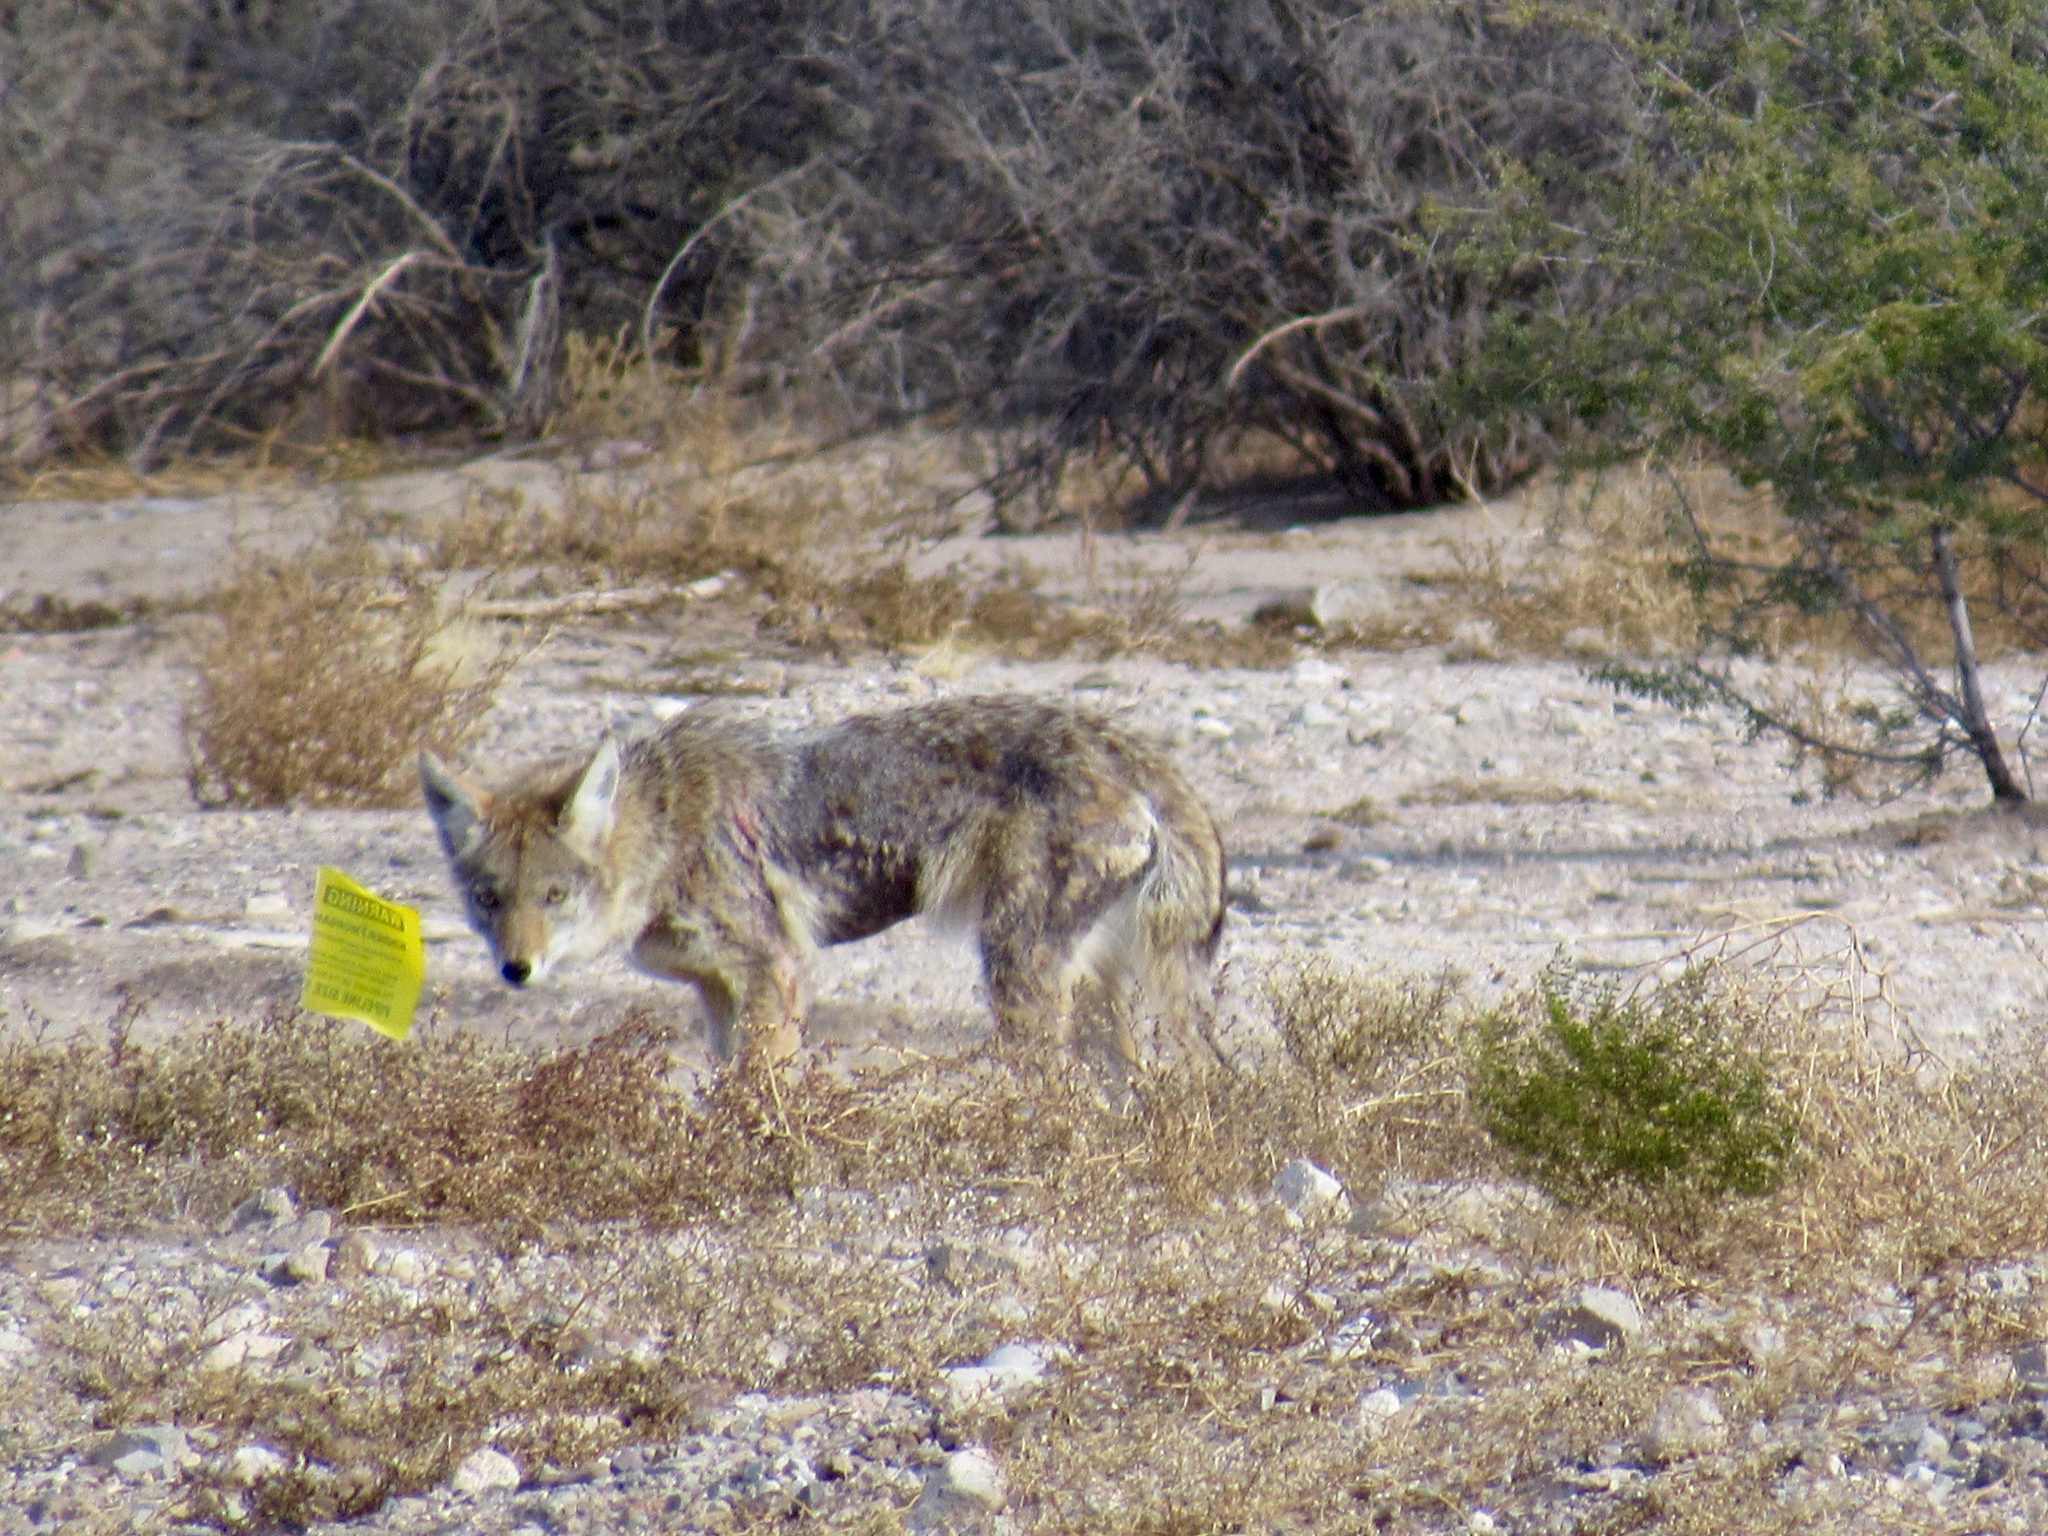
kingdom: Animalia
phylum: Chordata
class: Mammalia
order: Carnivora
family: Canidae
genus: Canis
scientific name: Canis latrans
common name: Coyote
